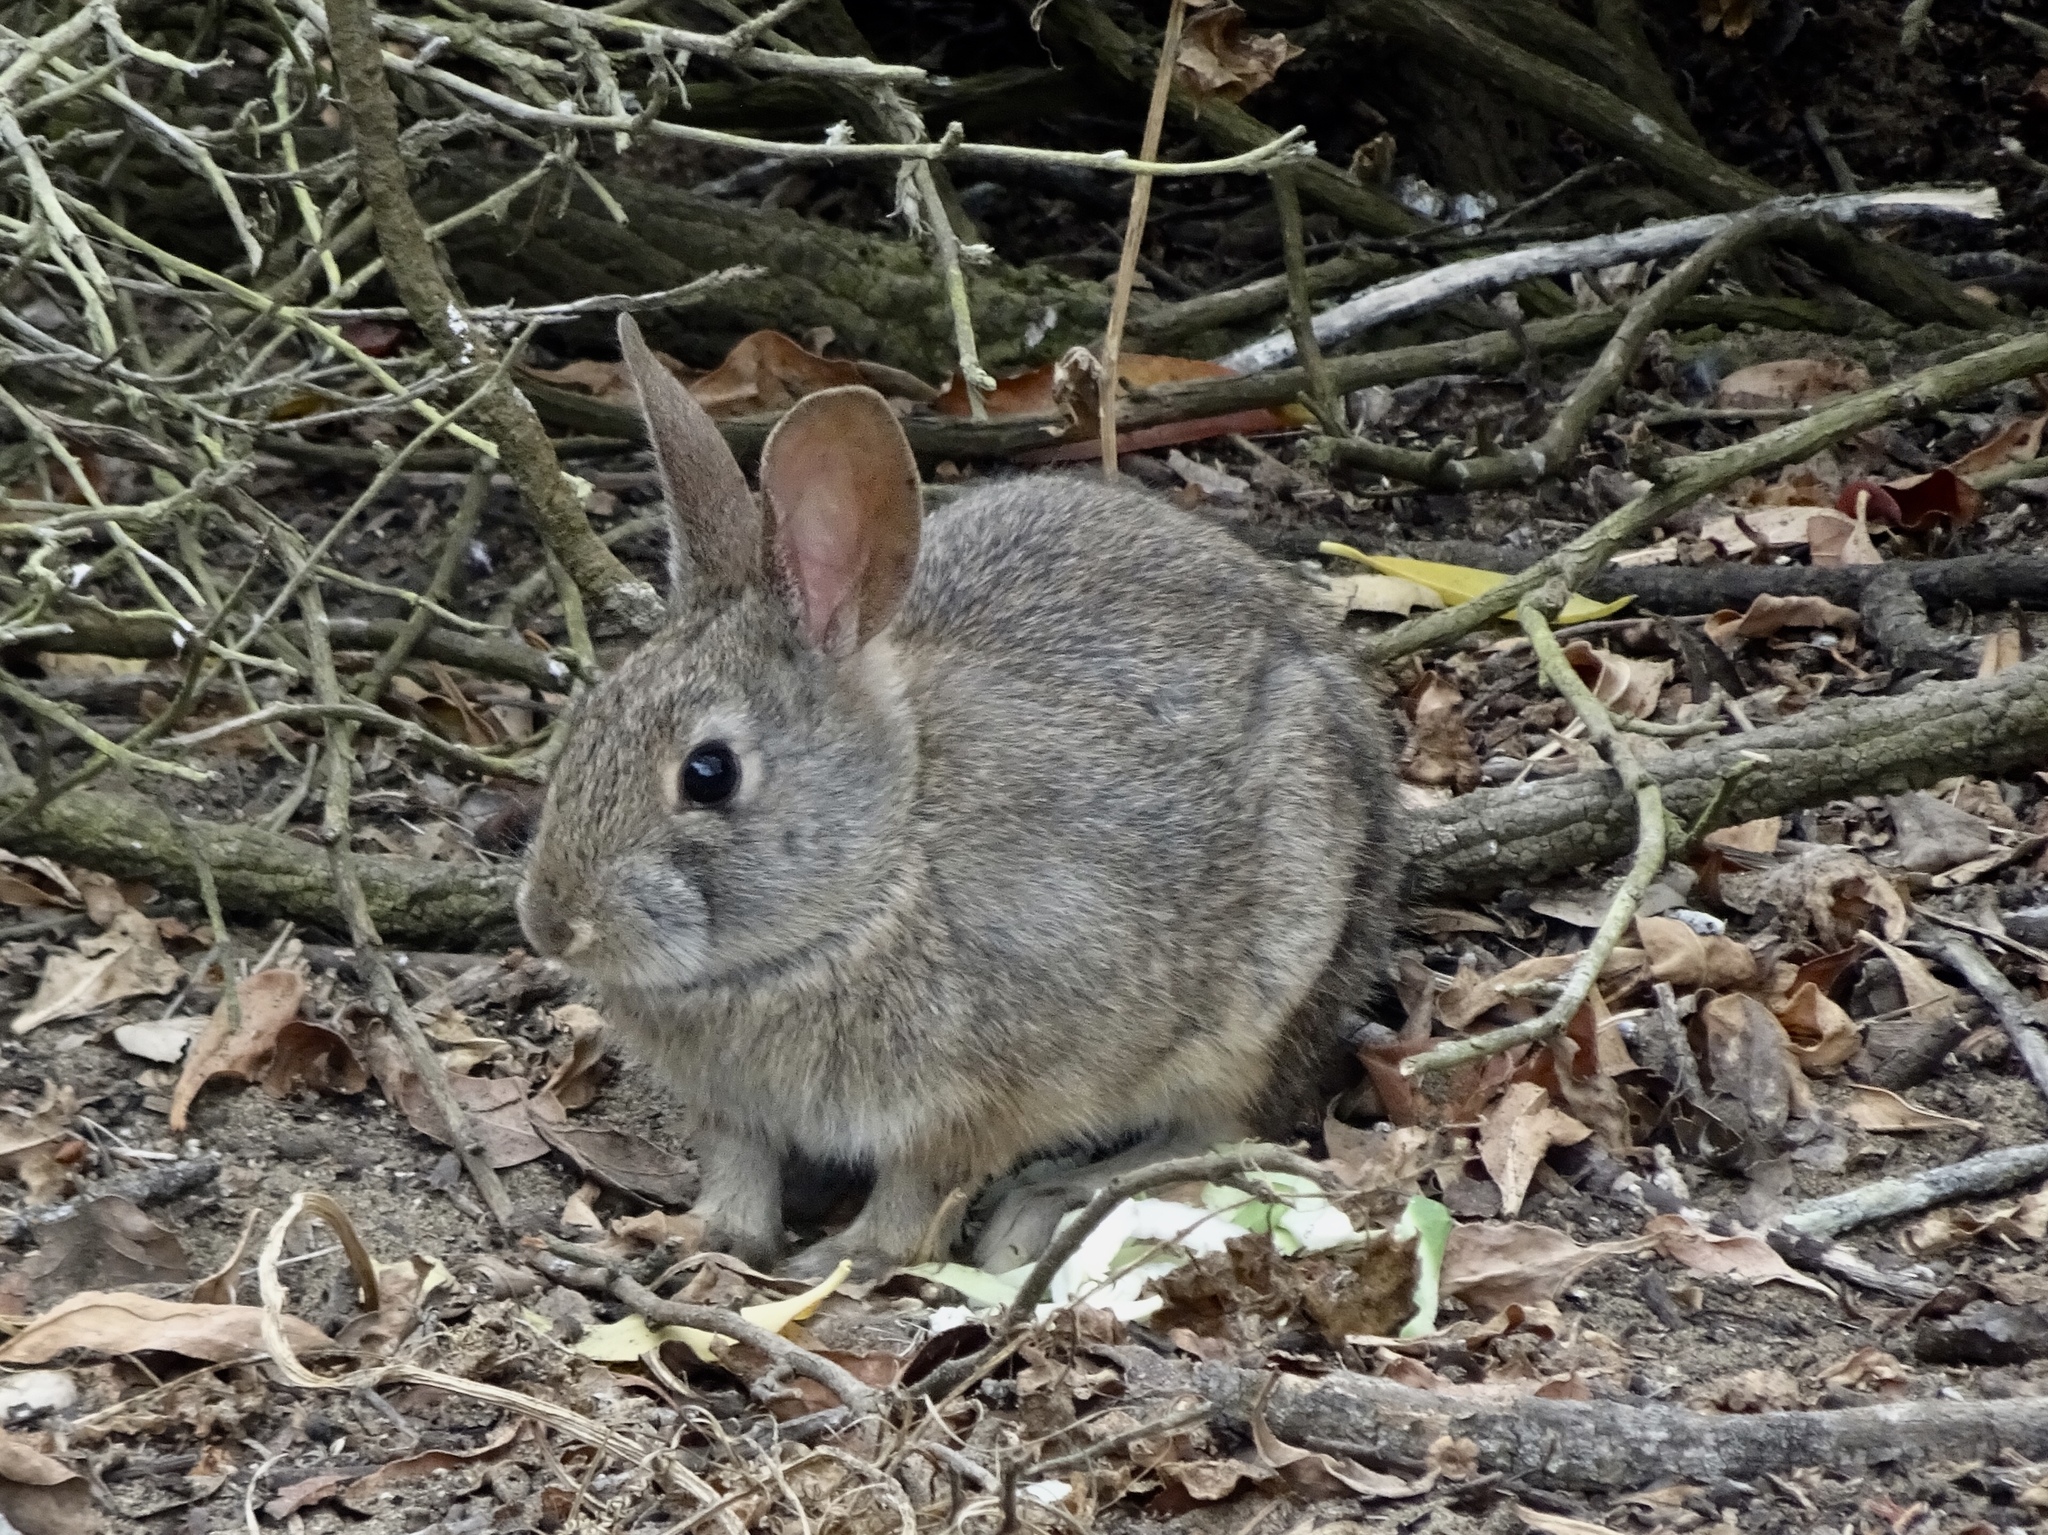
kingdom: Animalia
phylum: Chordata
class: Mammalia
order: Lagomorpha
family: Leporidae
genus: Sylvilagus
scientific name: Sylvilagus bachmani
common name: Brush rabbit
